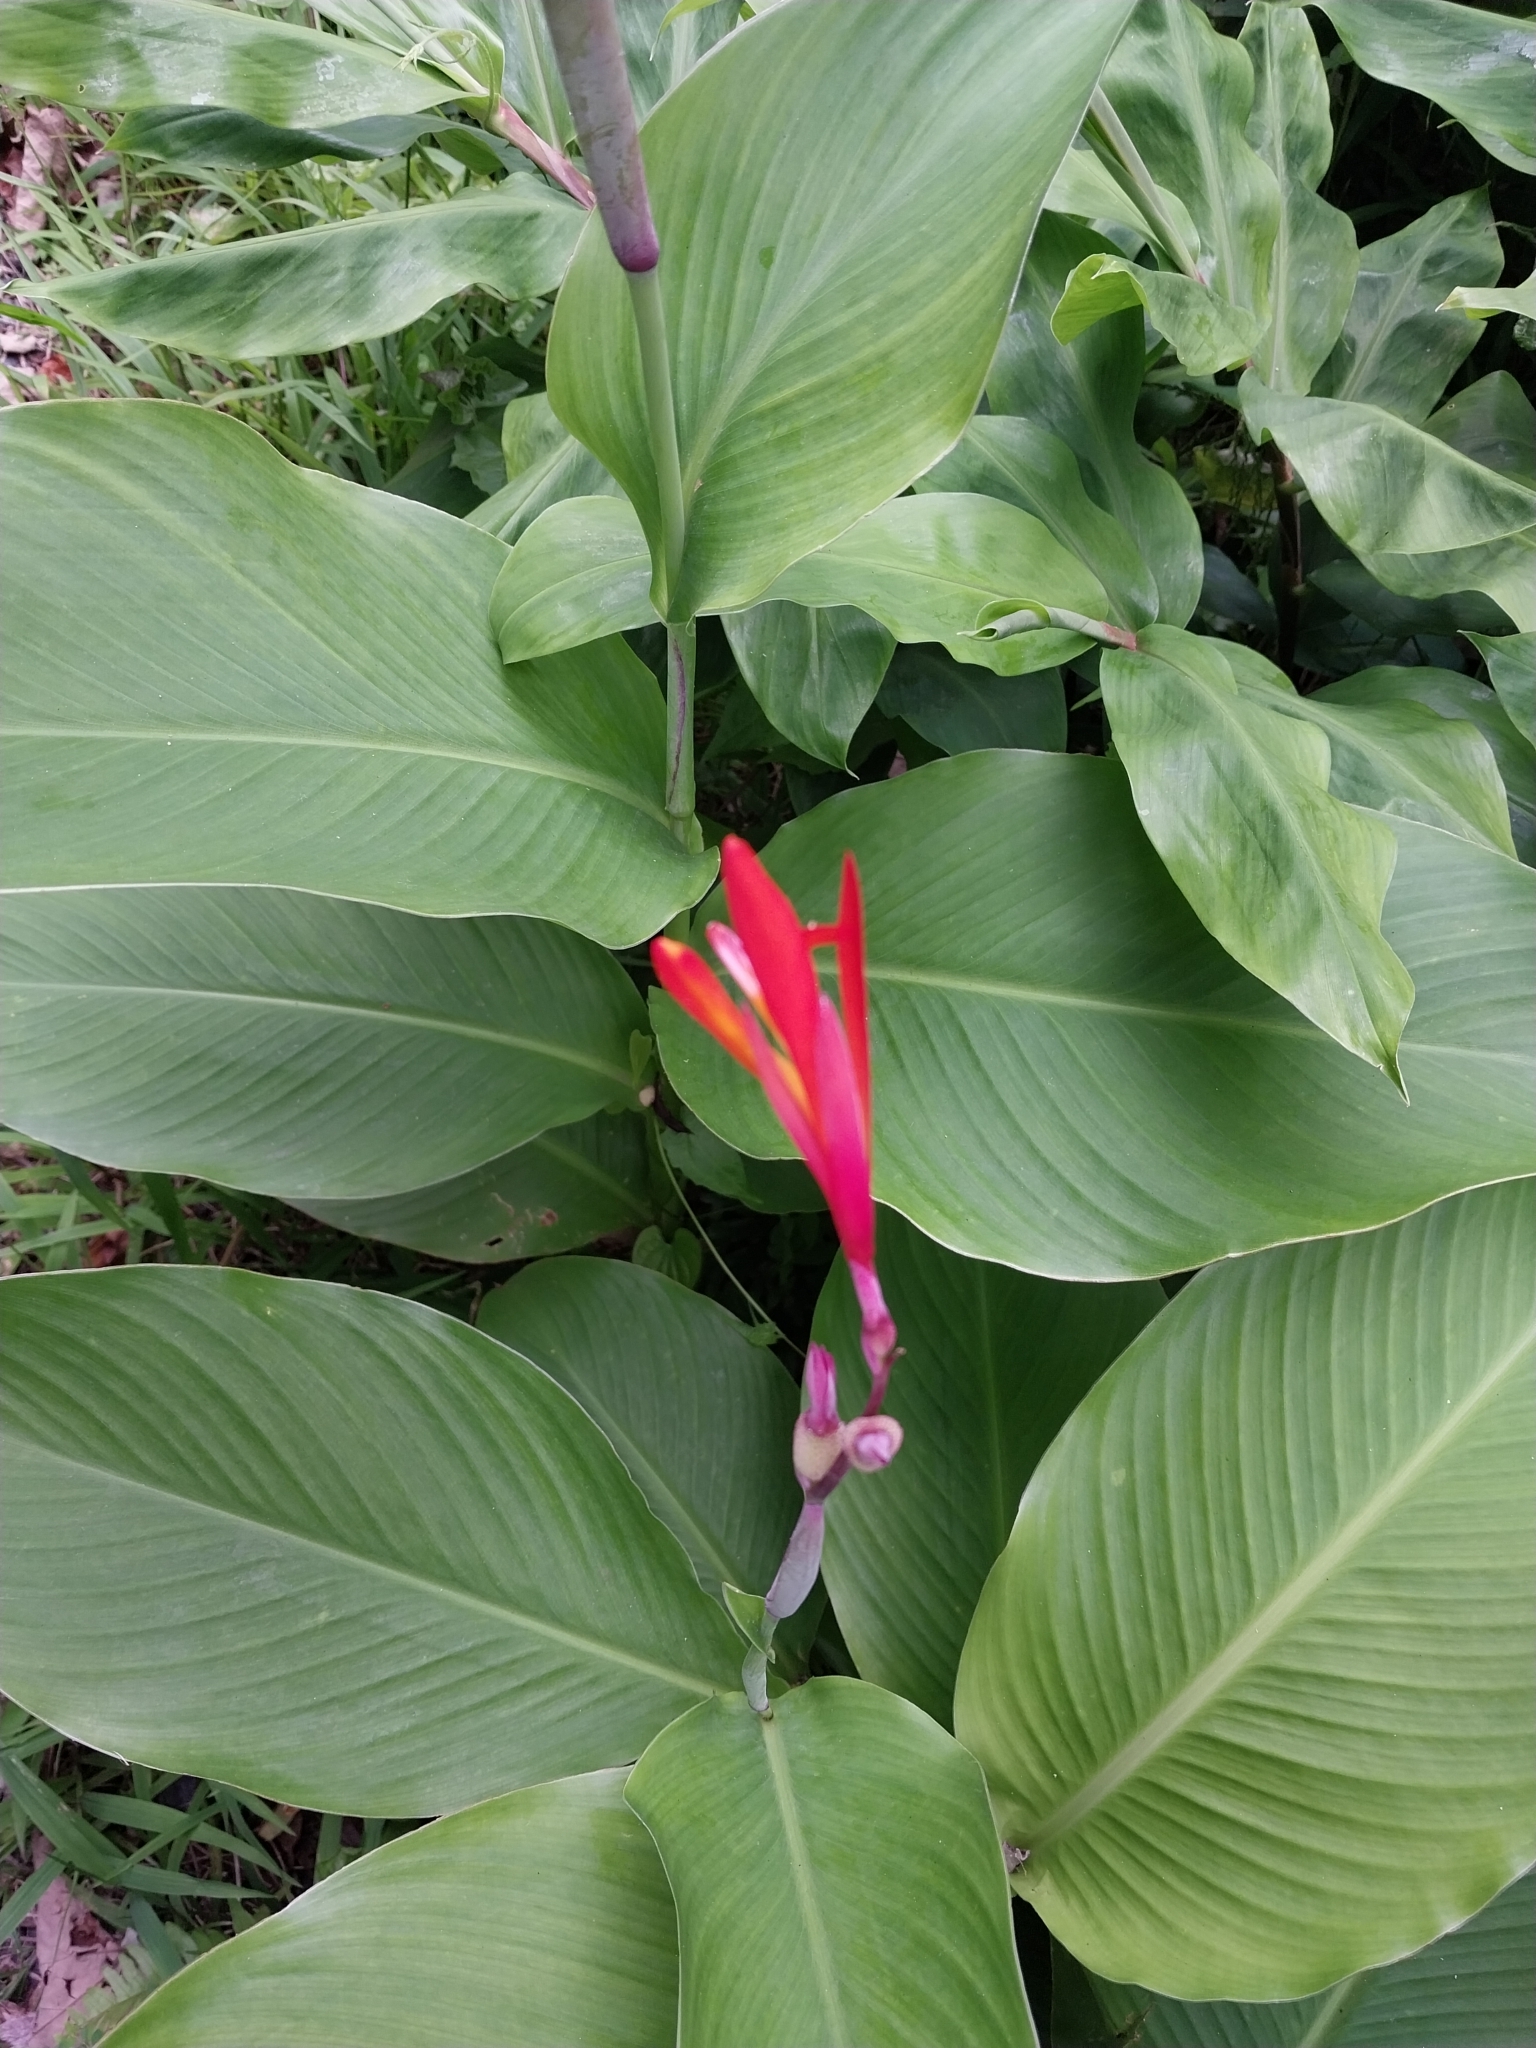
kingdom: Plantae
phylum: Tracheophyta
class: Liliopsida
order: Zingiberales
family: Cannaceae
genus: Canna
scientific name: Canna indica
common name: Indian shot
